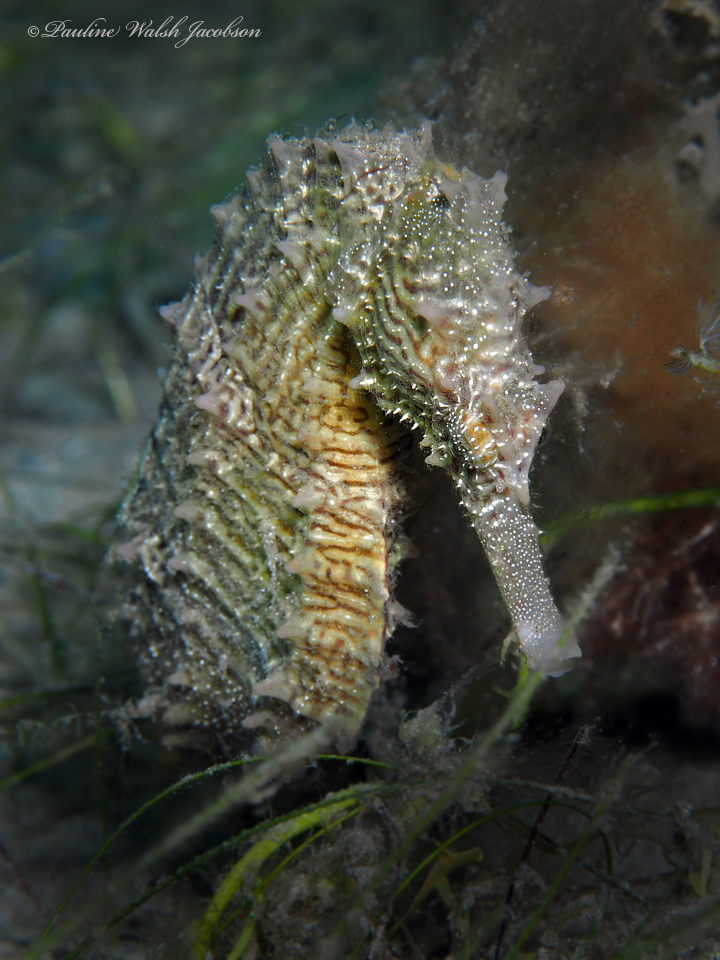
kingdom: Animalia
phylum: Chordata
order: Syngnathiformes
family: Syngnathidae
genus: Hippocampus
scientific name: Hippocampus erectus
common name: Lined seahorse
